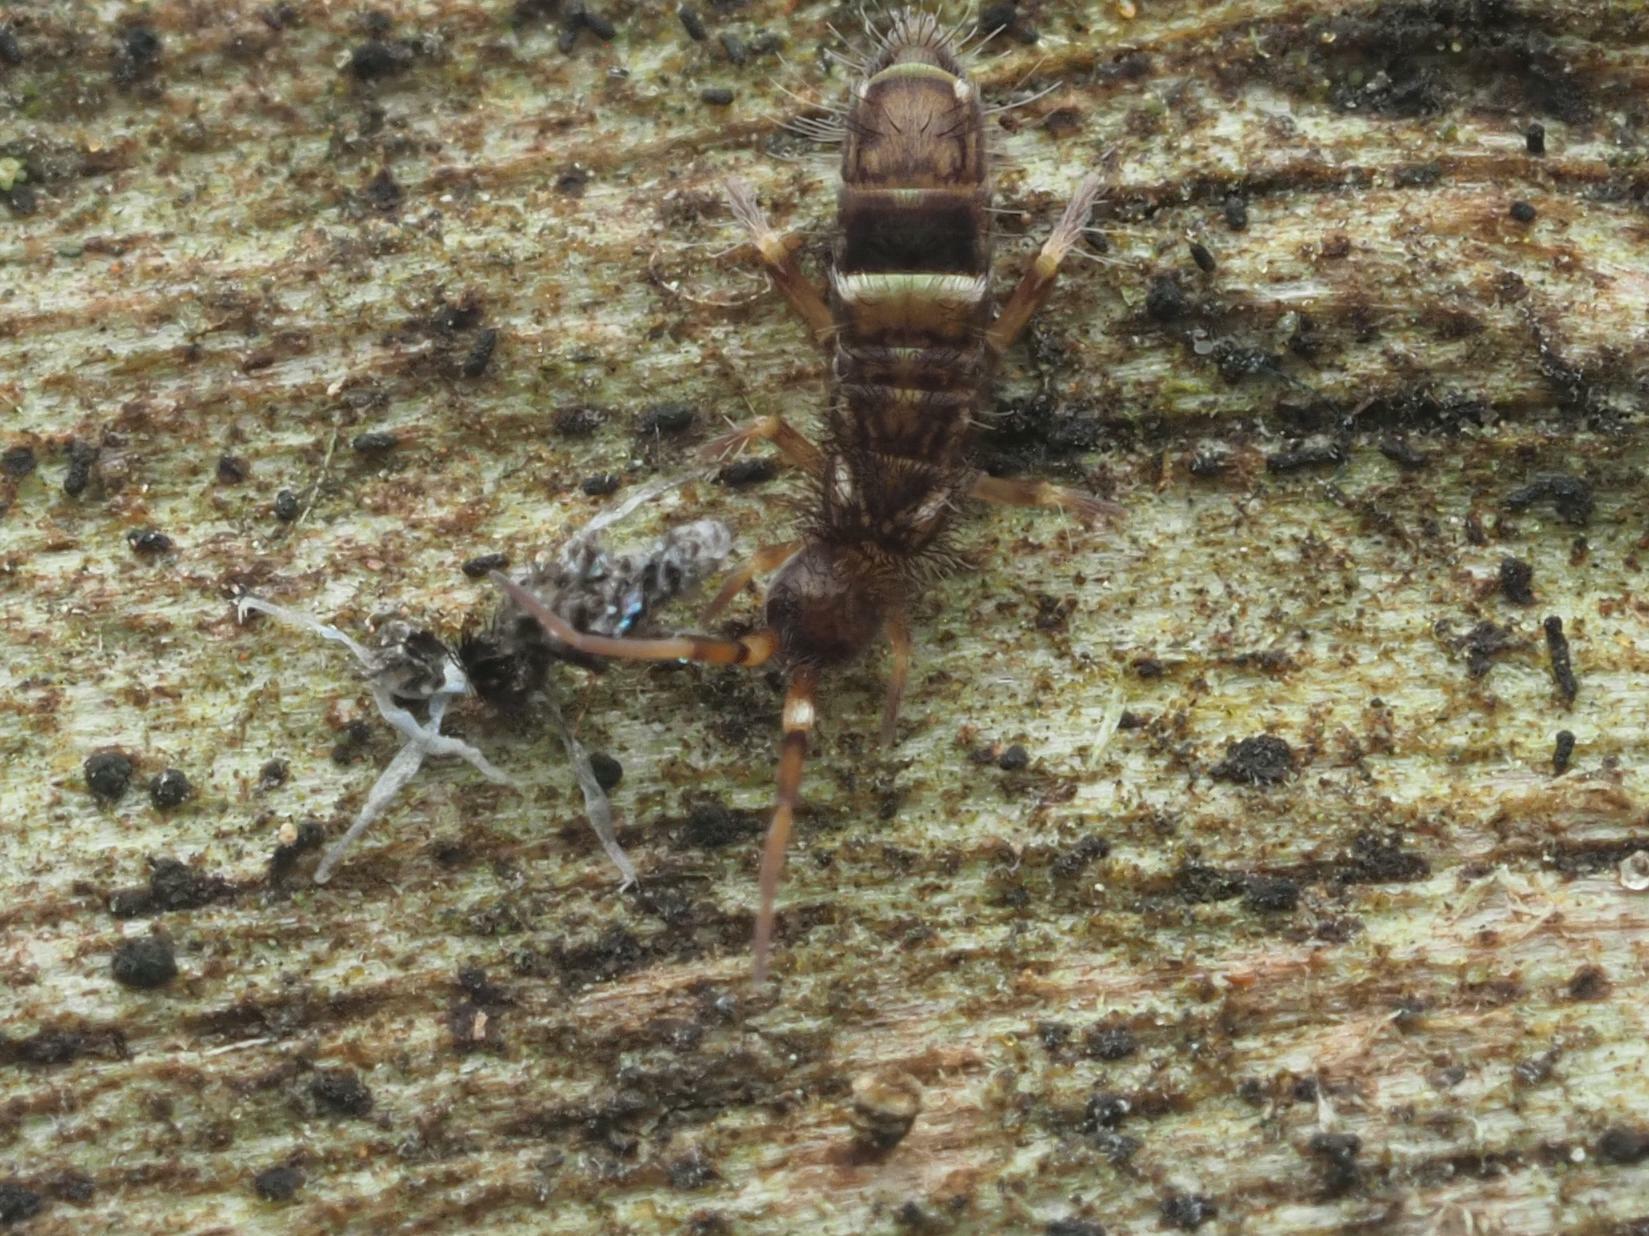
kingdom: Animalia
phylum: Arthropoda
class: Collembola
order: Entomobryomorpha
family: Orchesellidae
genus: Orchesella
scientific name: Orchesella cincta
